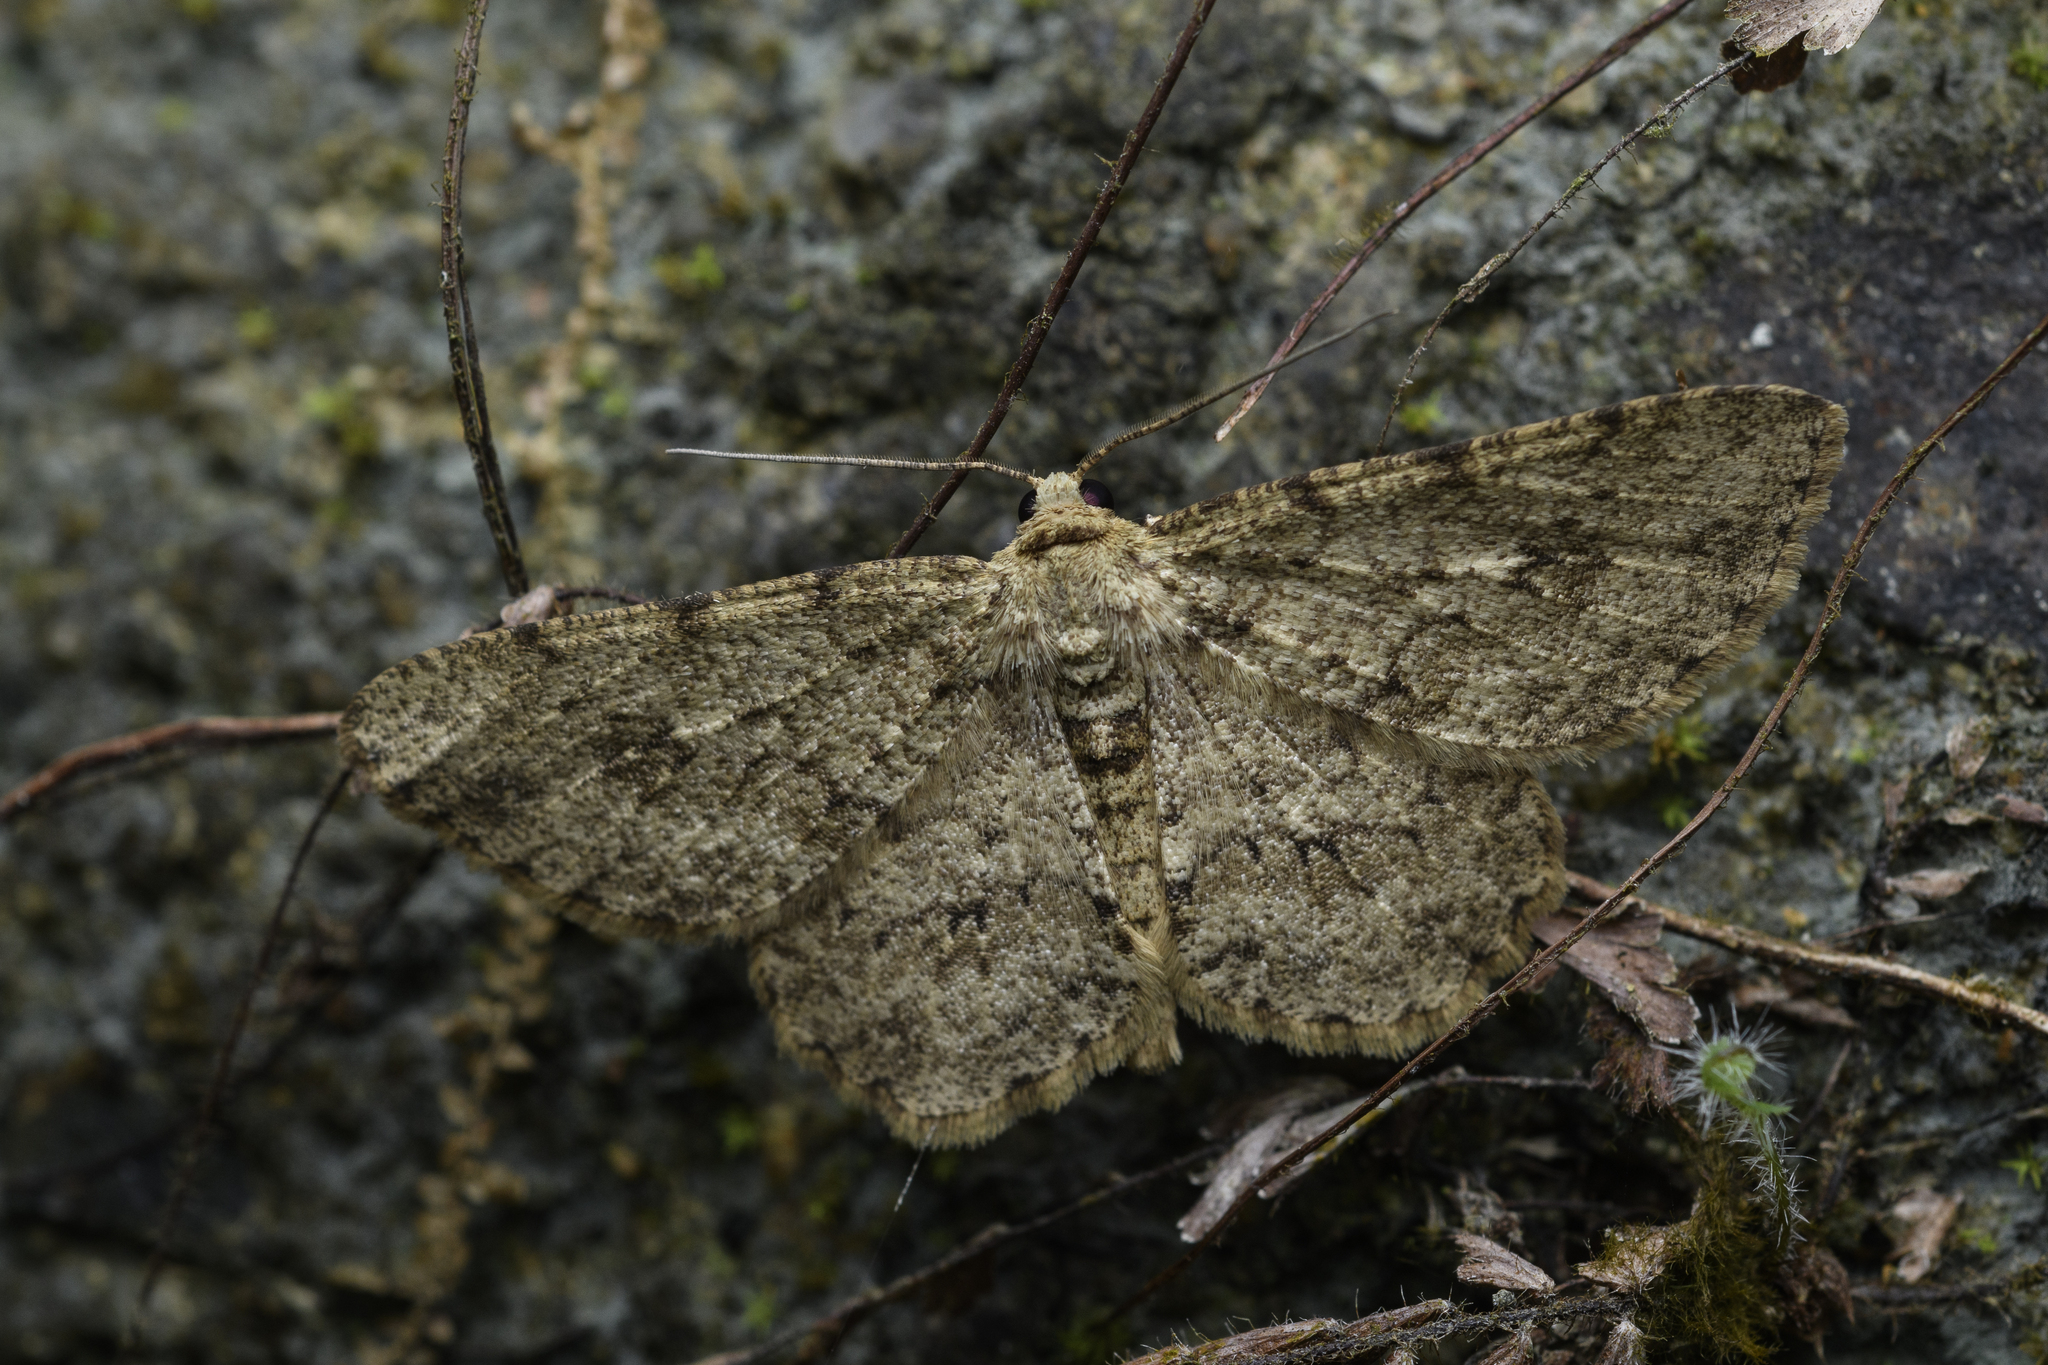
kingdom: Animalia
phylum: Arthropoda
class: Insecta
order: Lepidoptera
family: Geometridae
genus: Ectropis
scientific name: Ectropis bhurmitra
